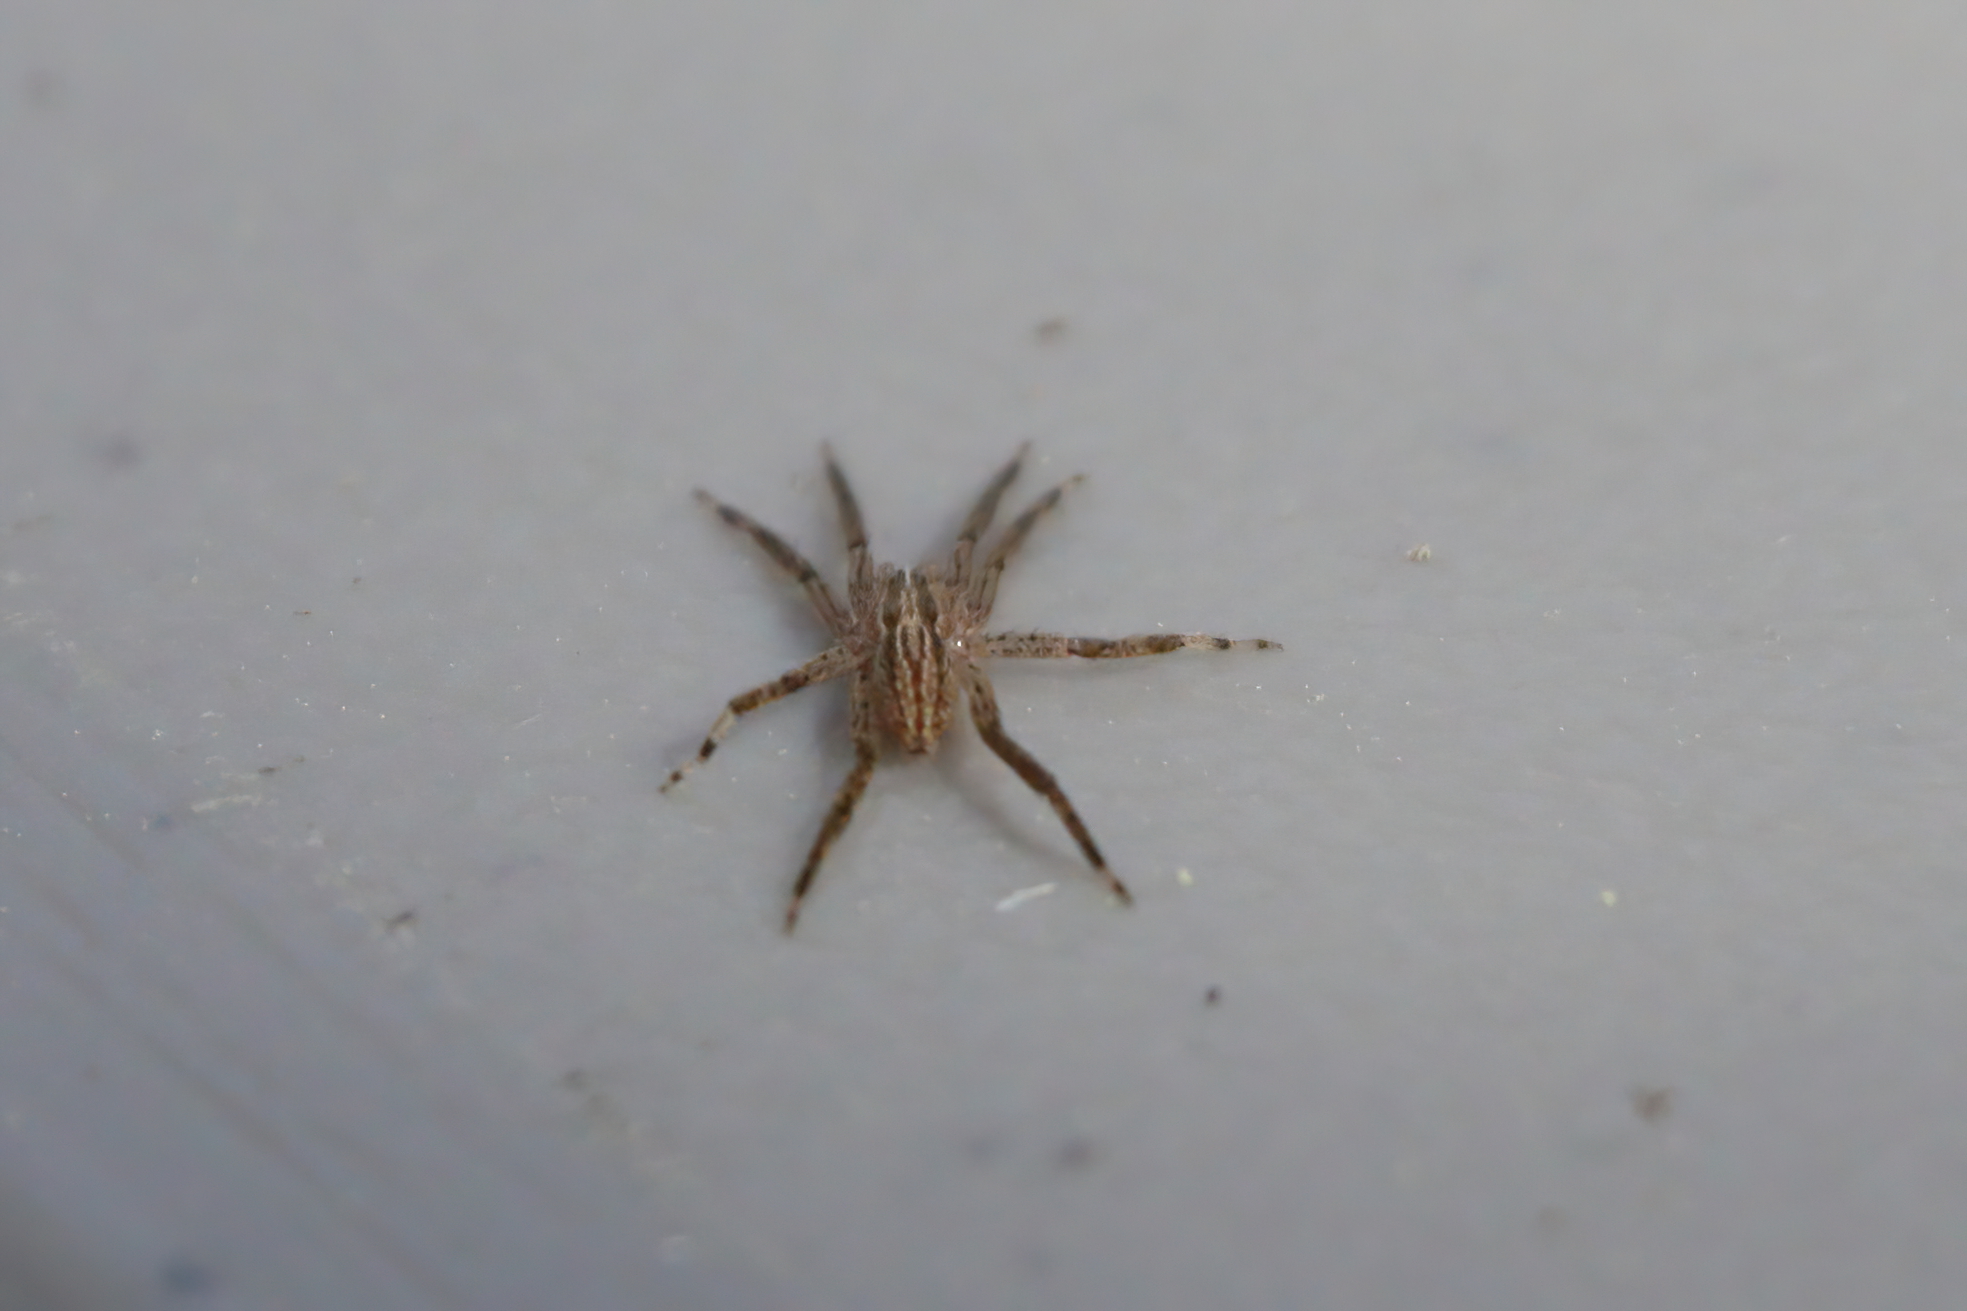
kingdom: Animalia
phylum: Arthropoda
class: Arachnida
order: Araneae
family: Miturgidae
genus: Zora
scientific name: Zora pumila
